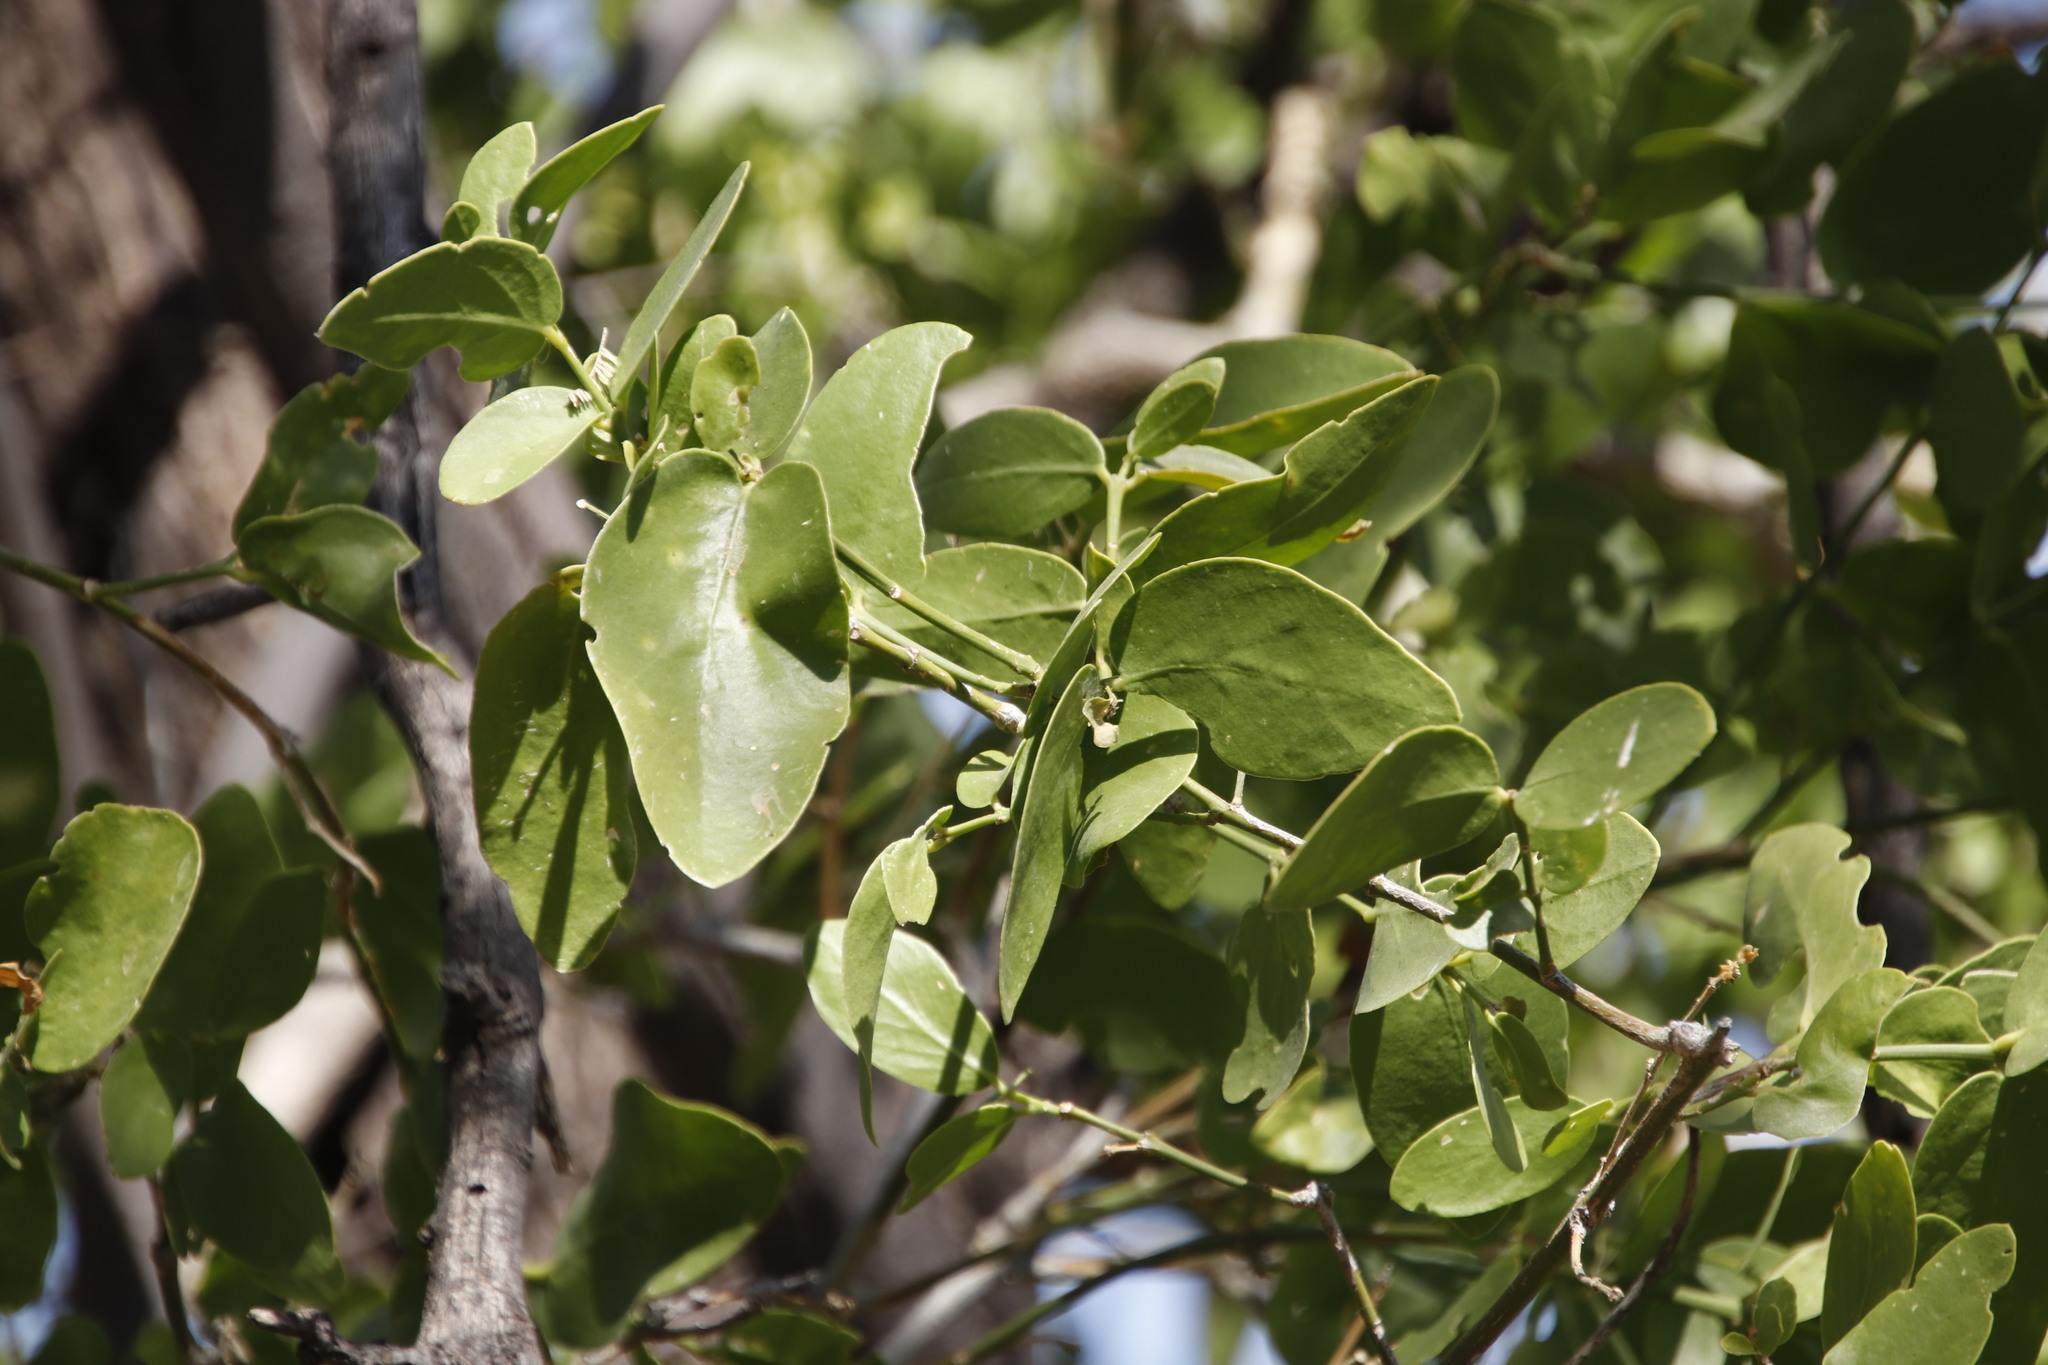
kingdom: Plantae
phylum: Tracheophyta
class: Magnoliopsida
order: Brassicales
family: Salvadoraceae
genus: Salvadora
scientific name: Salvadora persica
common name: Toothbrushtree
